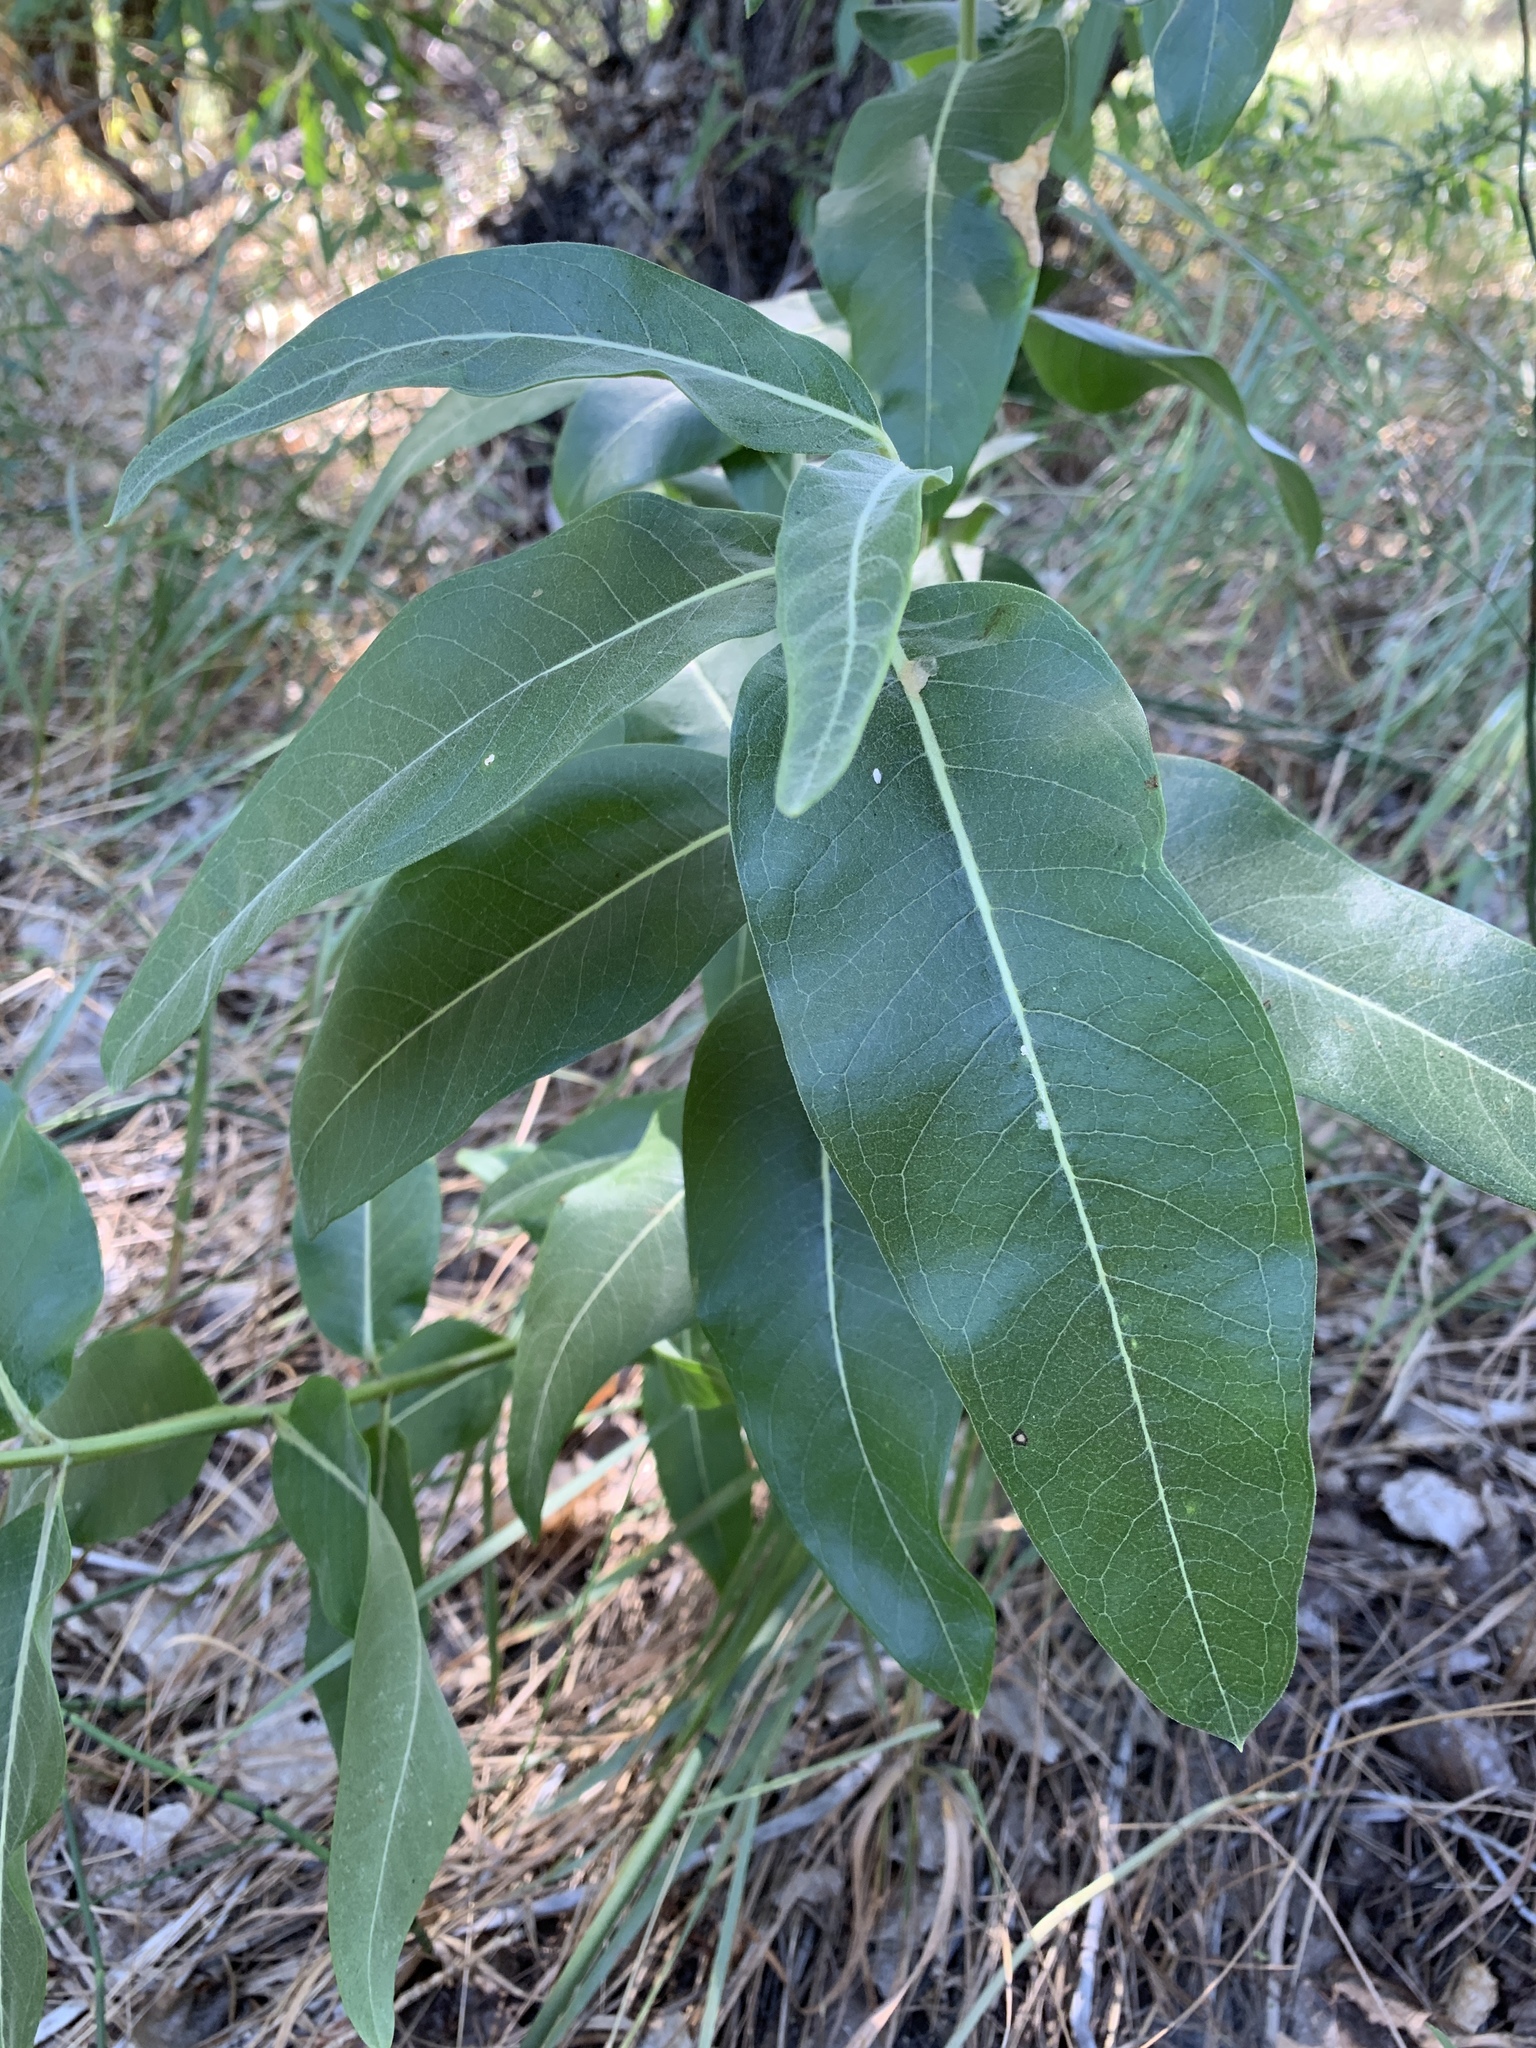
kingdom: Plantae
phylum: Tracheophyta
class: Magnoliopsida
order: Gentianales
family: Apocynaceae
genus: Asclepias
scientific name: Asclepias speciosa
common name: Showy milkweed
